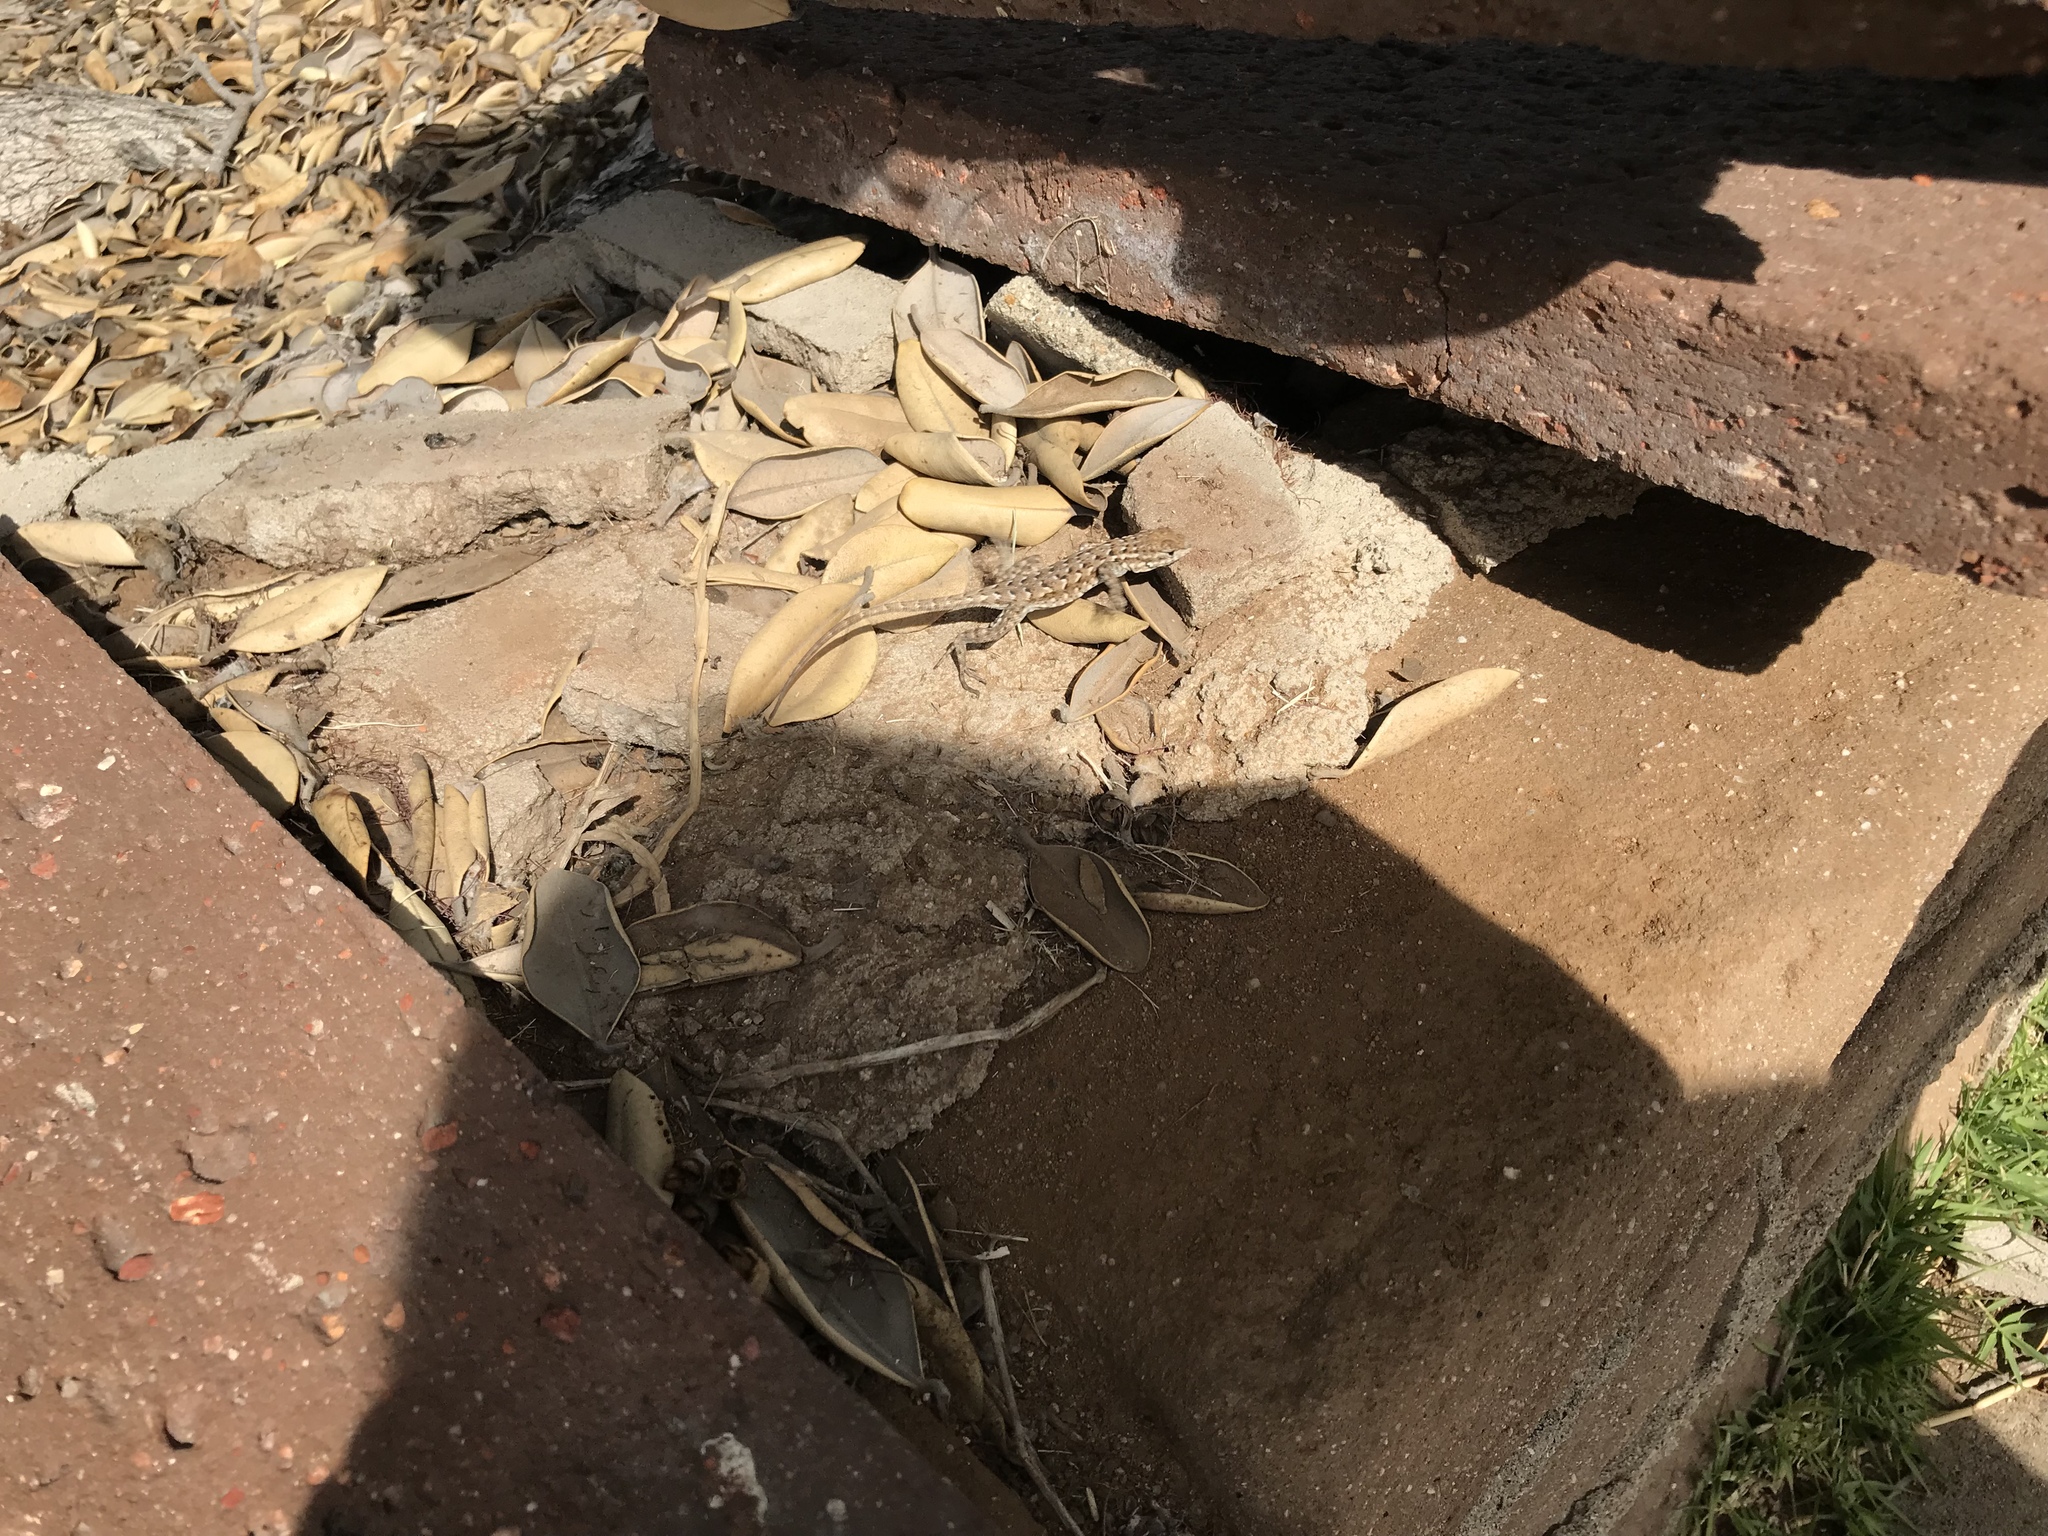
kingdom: Animalia
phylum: Chordata
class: Squamata
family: Phrynosomatidae
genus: Uta
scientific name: Uta stansburiana
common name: Side-blotched lizard
